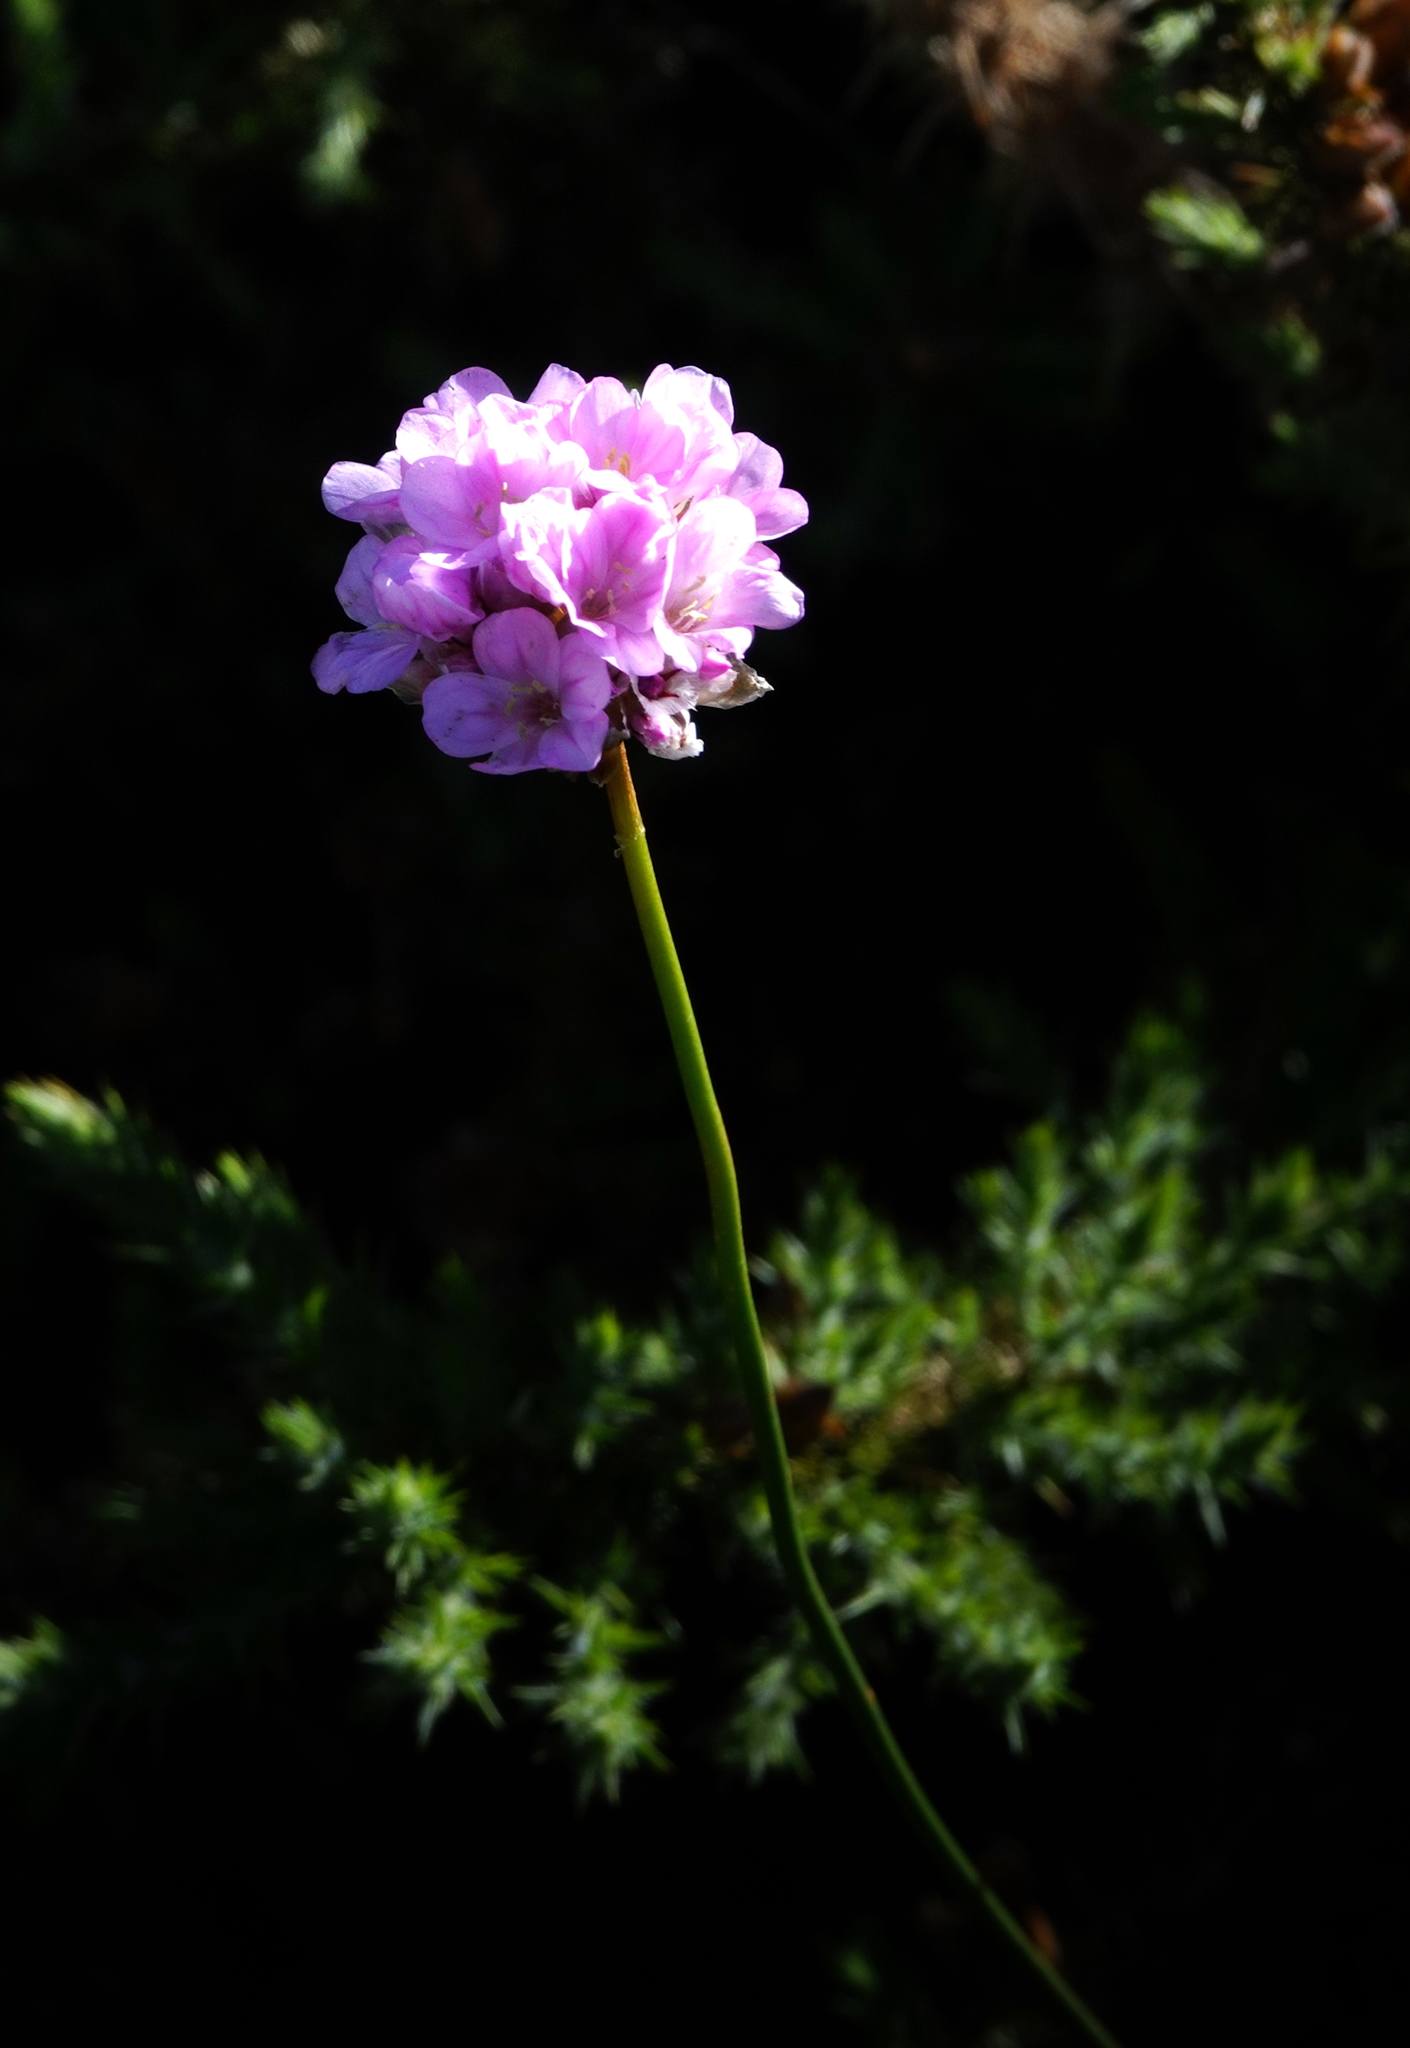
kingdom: Plantae
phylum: Tracheophyta
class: Magnoliopsida
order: Caryophyllales
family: Plumbaginaceae
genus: Armeria
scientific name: Armeria maderensis
